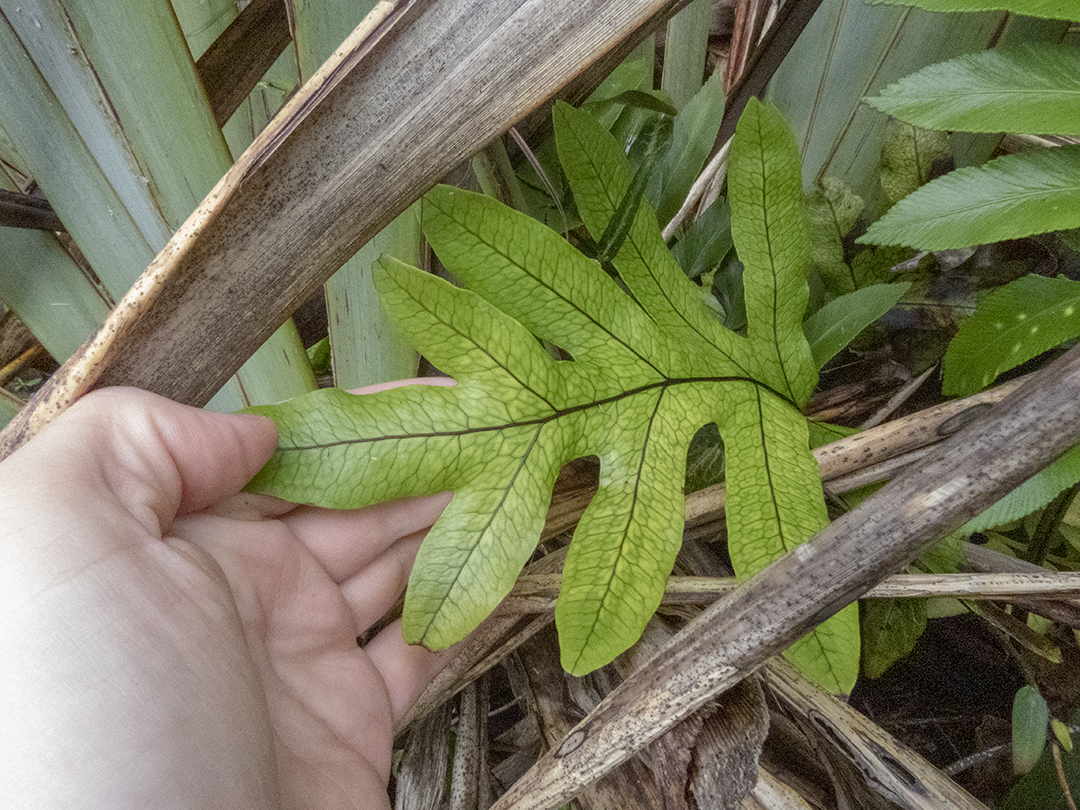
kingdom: Plantae
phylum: Tracheophyta
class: Polypodiopsida
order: Polypodiales
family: Polypodiaceae
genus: Lecanopteris
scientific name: Lecanopteris pustulata
